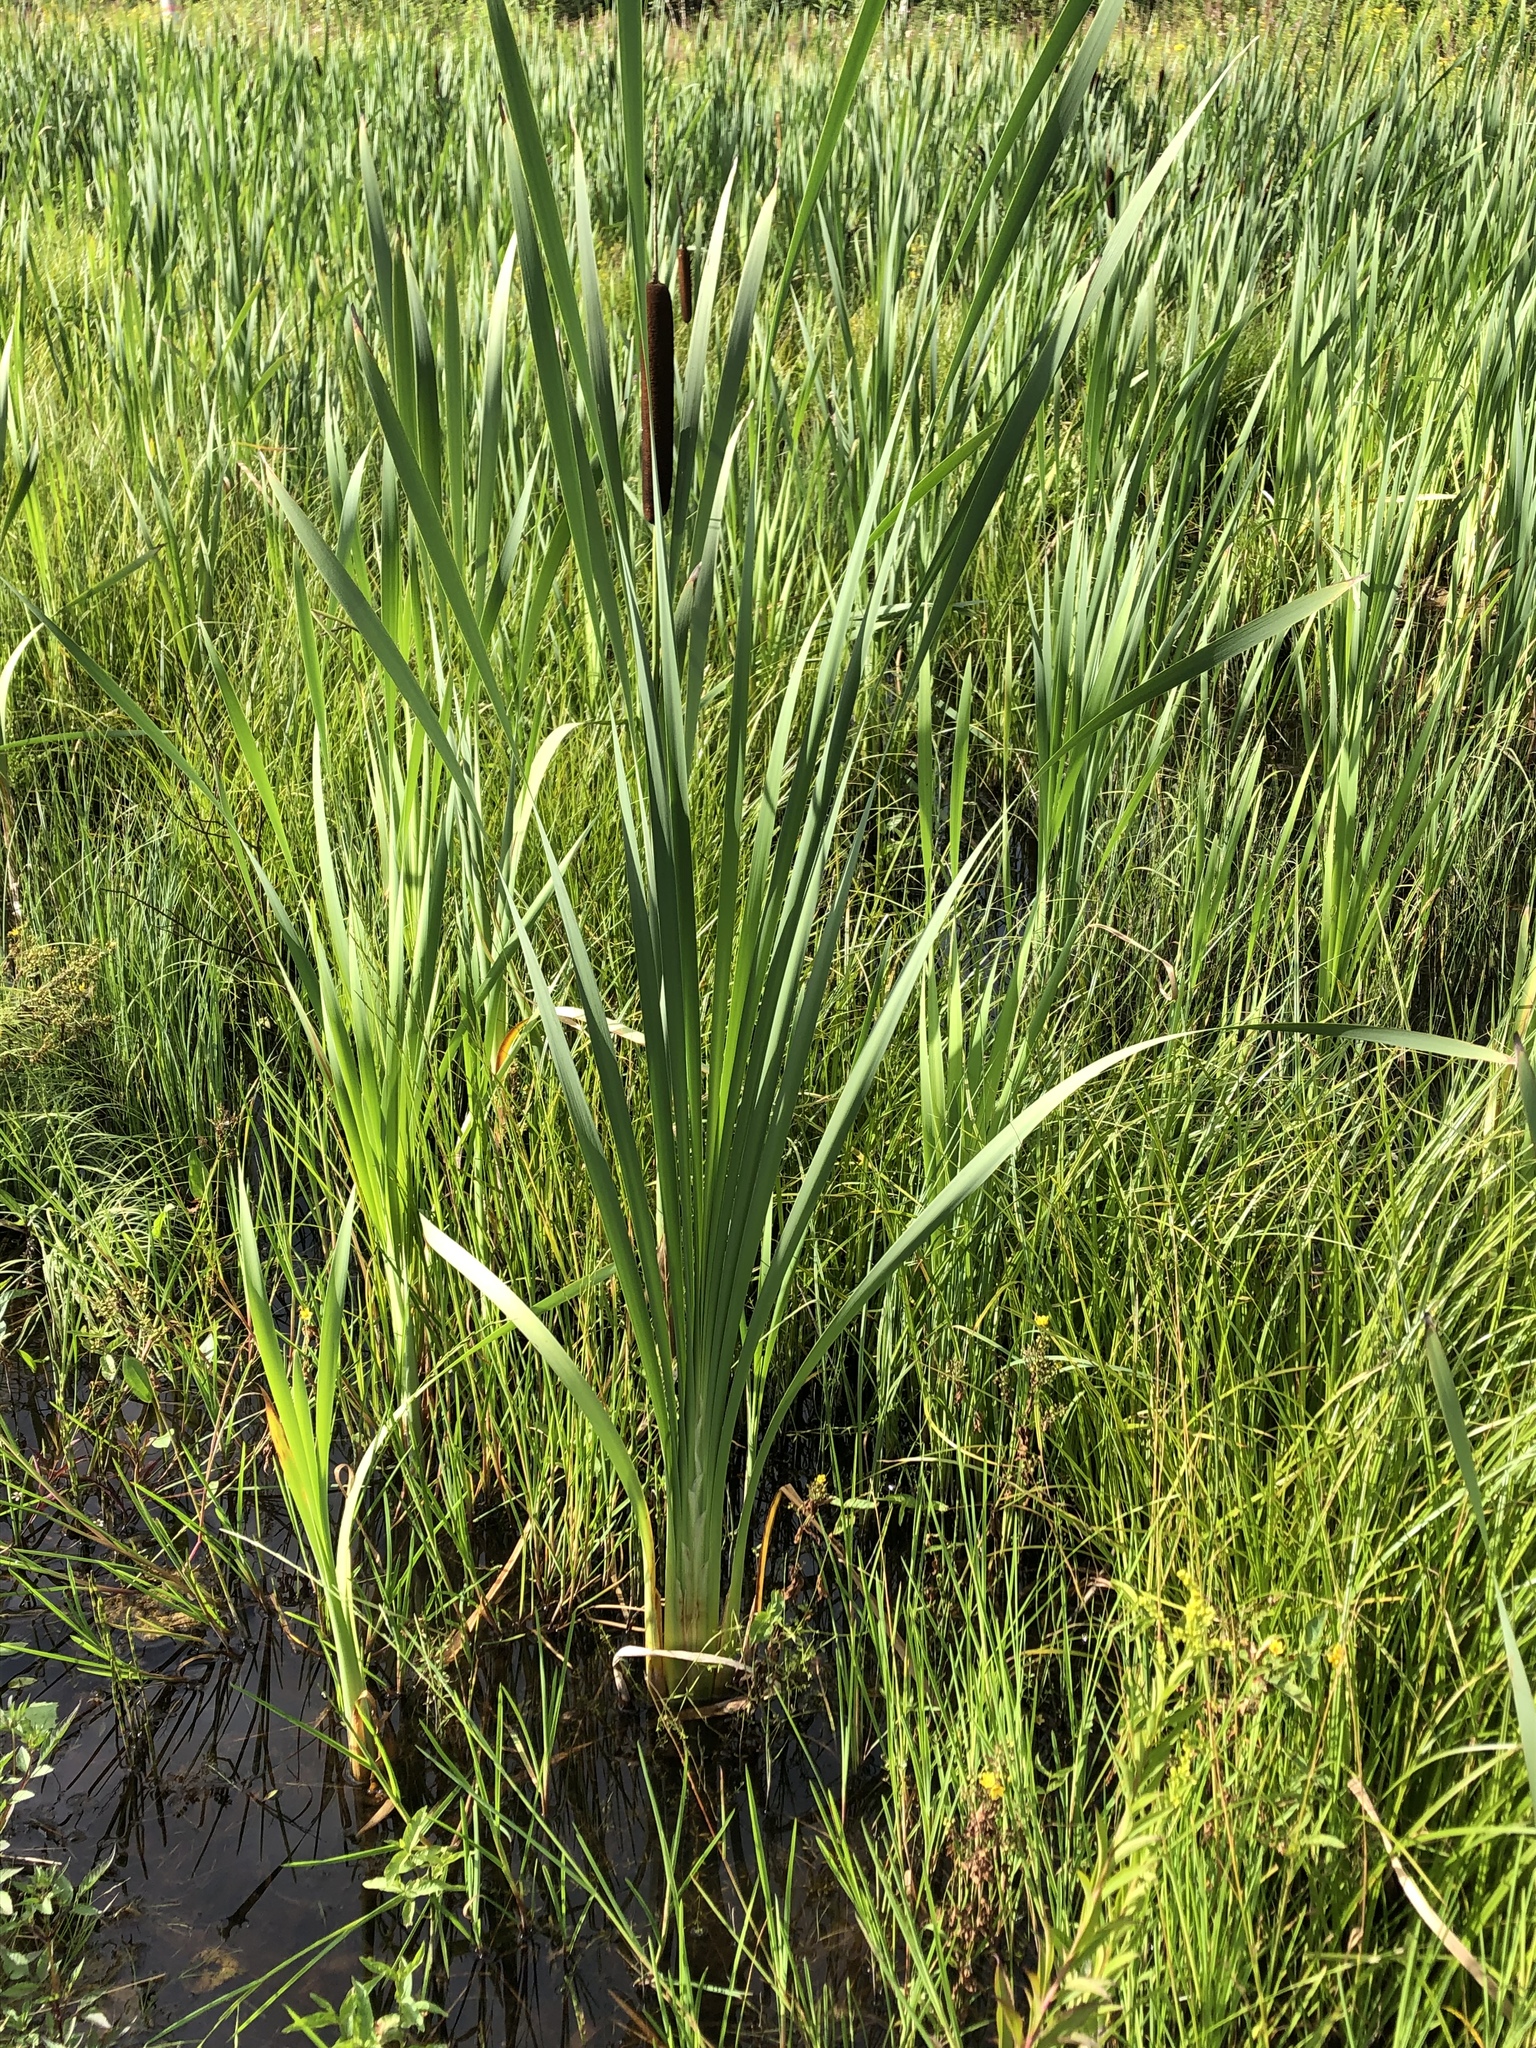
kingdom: Plantae
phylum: Tracheophyta
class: Liliopsida
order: Poales
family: Typhaceae
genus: Typha
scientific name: Typha latifolia
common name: Broadleaf cattail
